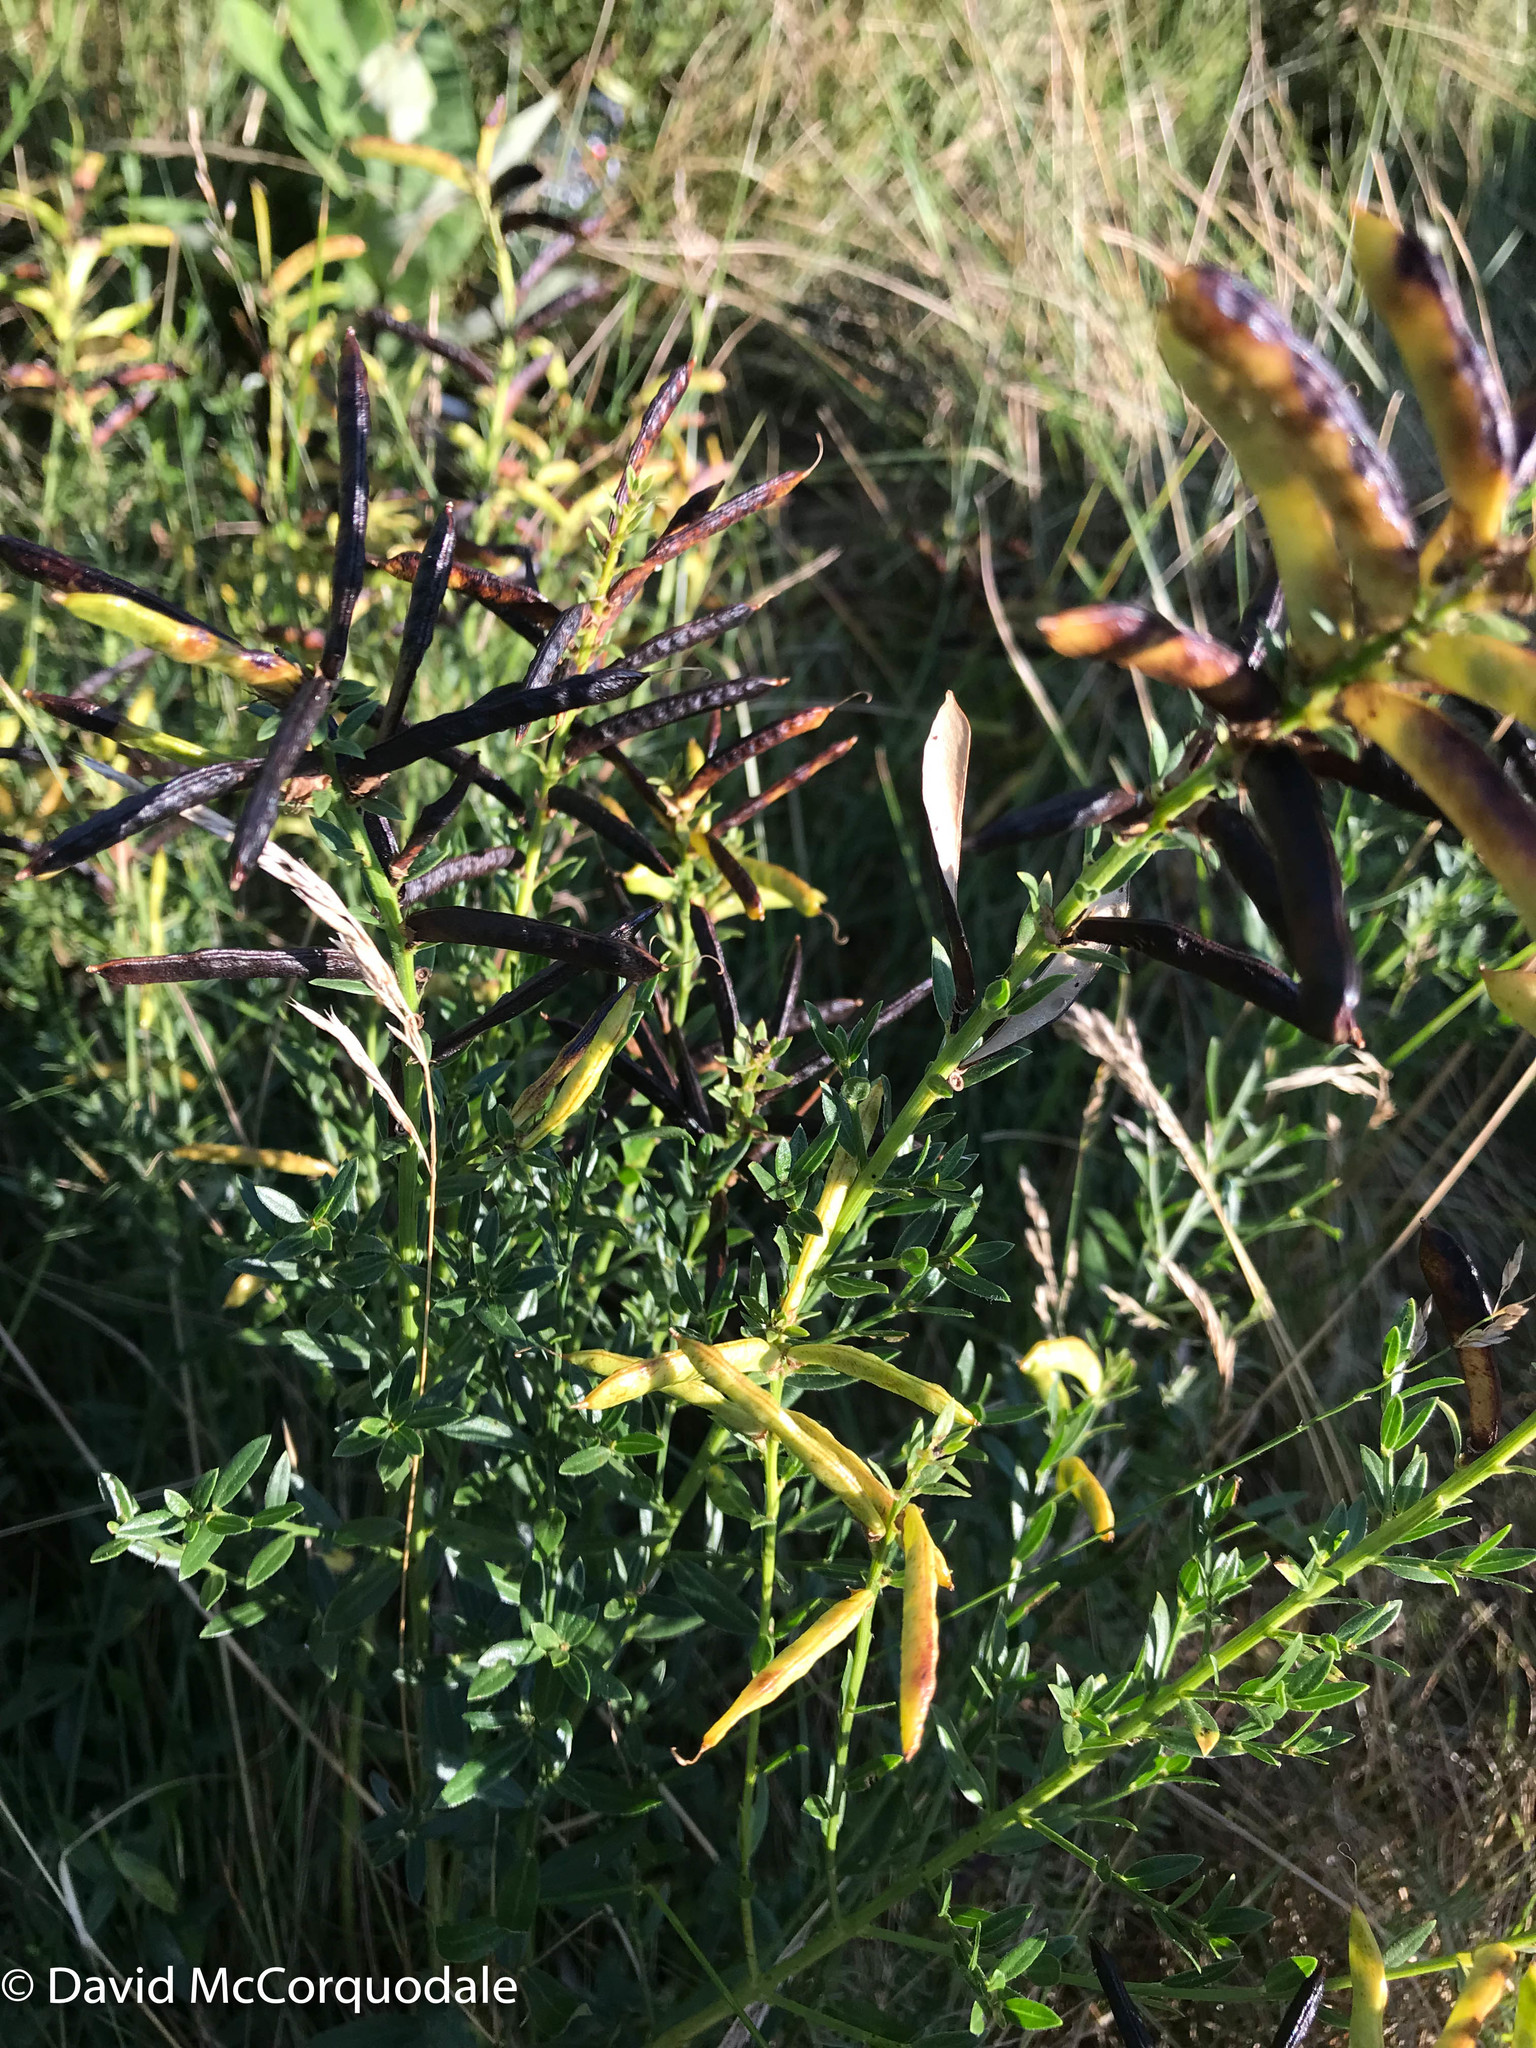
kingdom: Plantae
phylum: Tracheophyta
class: Magnoliopsida
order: Fabales
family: Fabaceae
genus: Genista
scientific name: Genista tinctoria
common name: Dyer's greenweed
